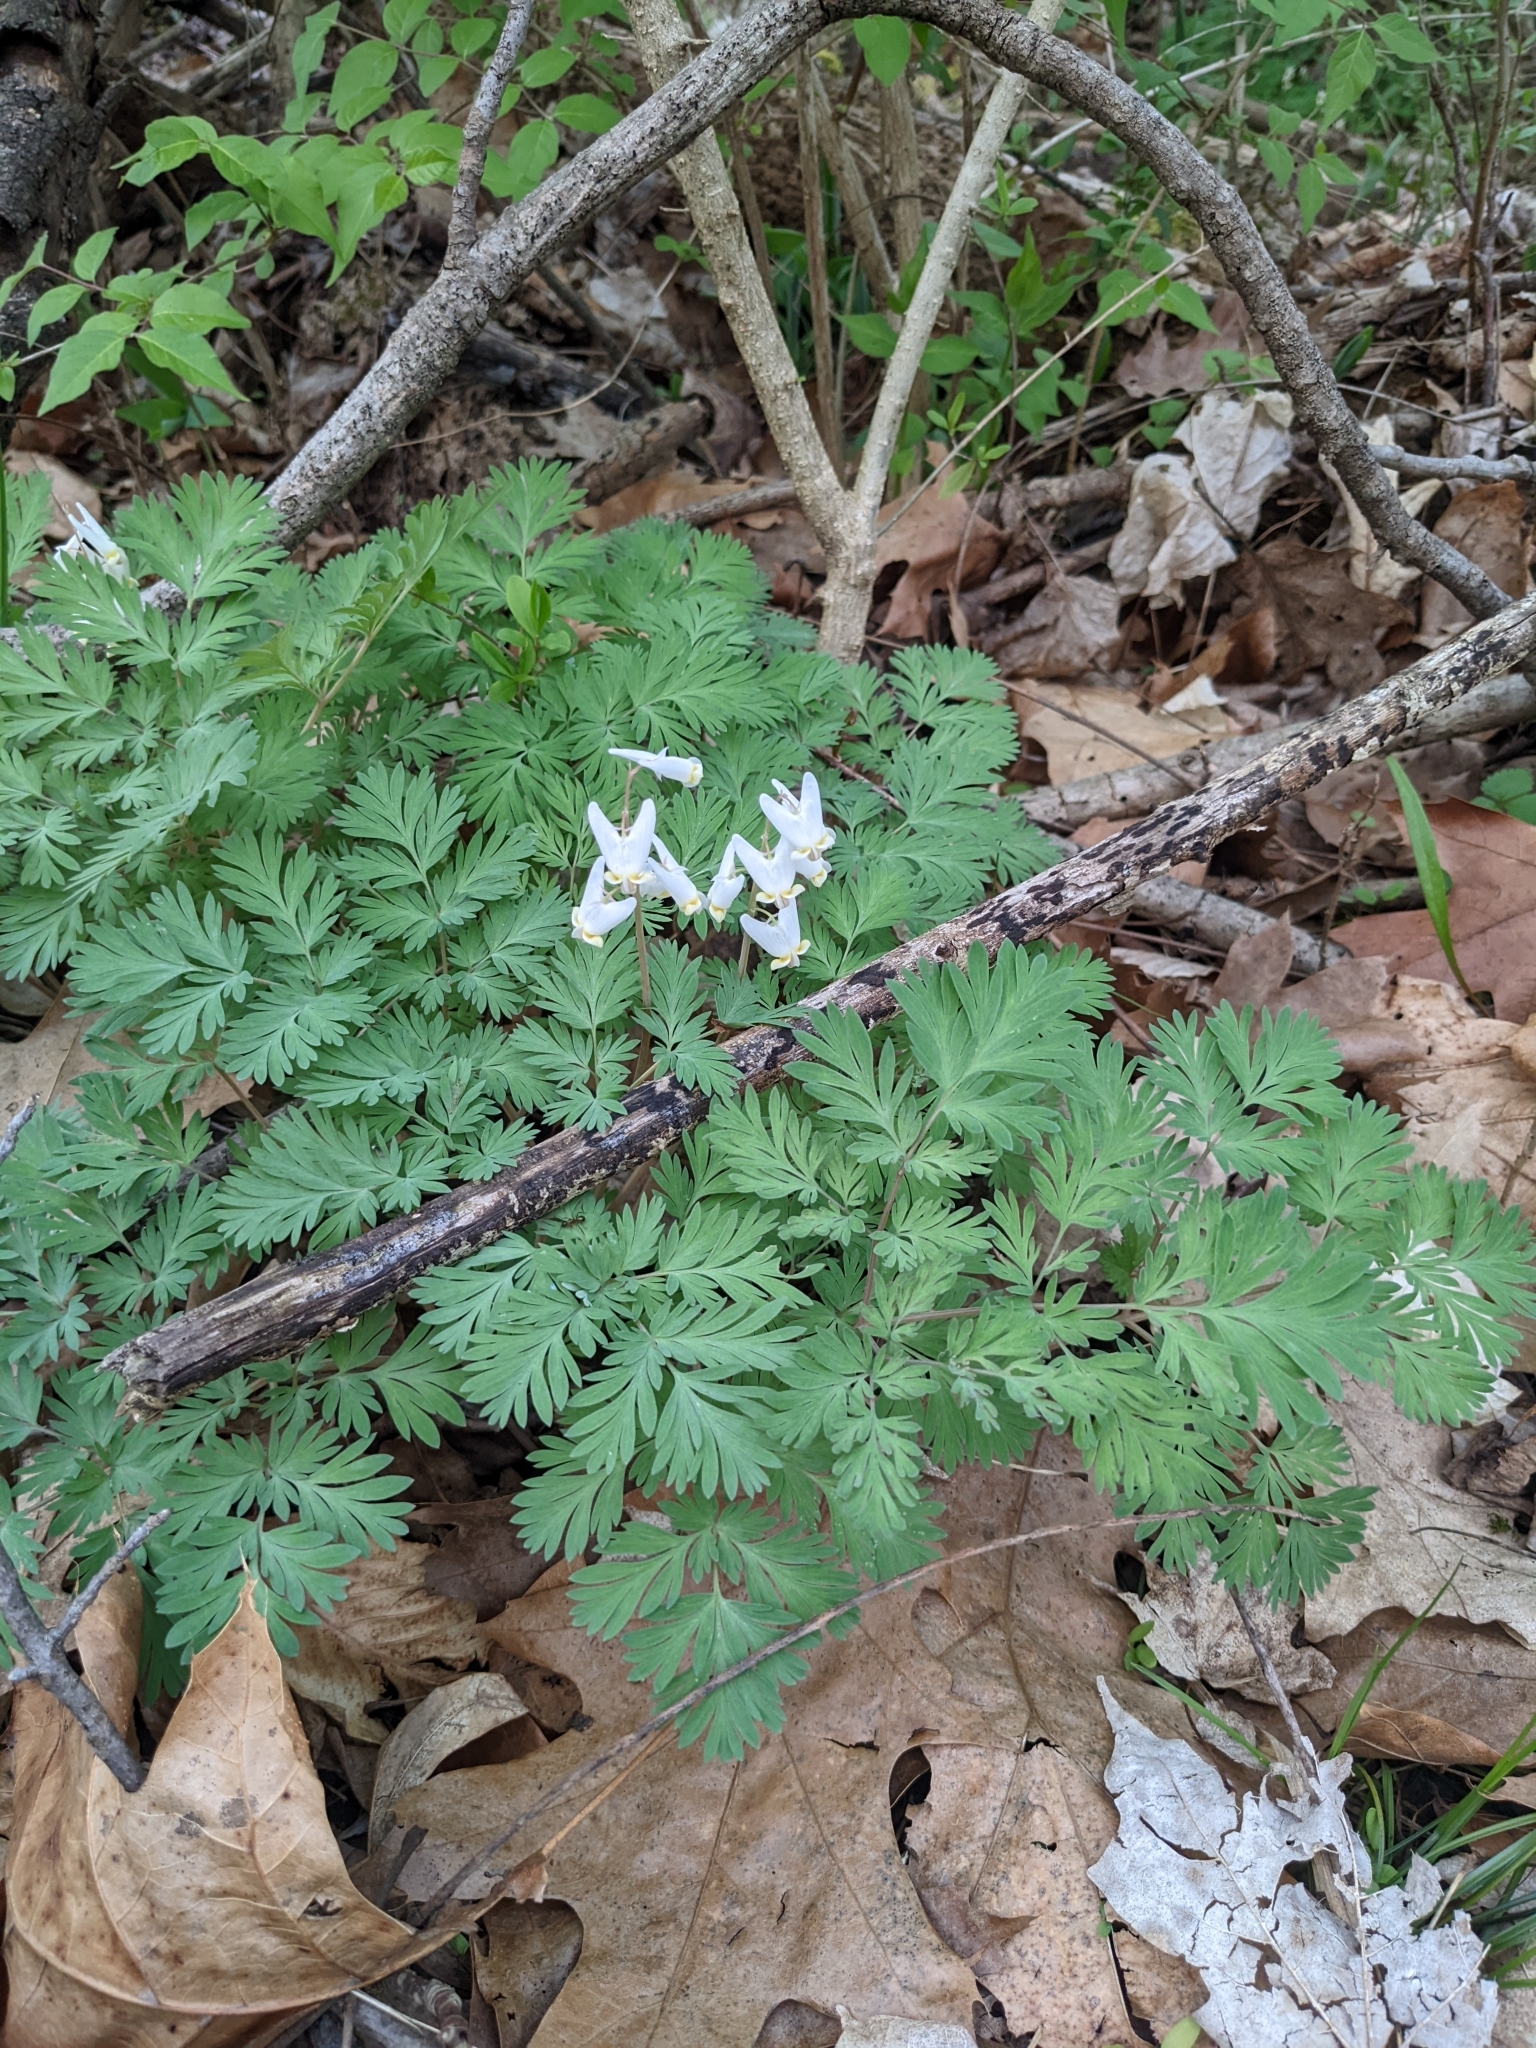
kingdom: Plantae
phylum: Tracheophyta
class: Magnoliopsida
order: Ranunculales
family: Papaveraceae
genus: Dicentra
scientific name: Dicentra cucullaria
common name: Dutchman's breeches
